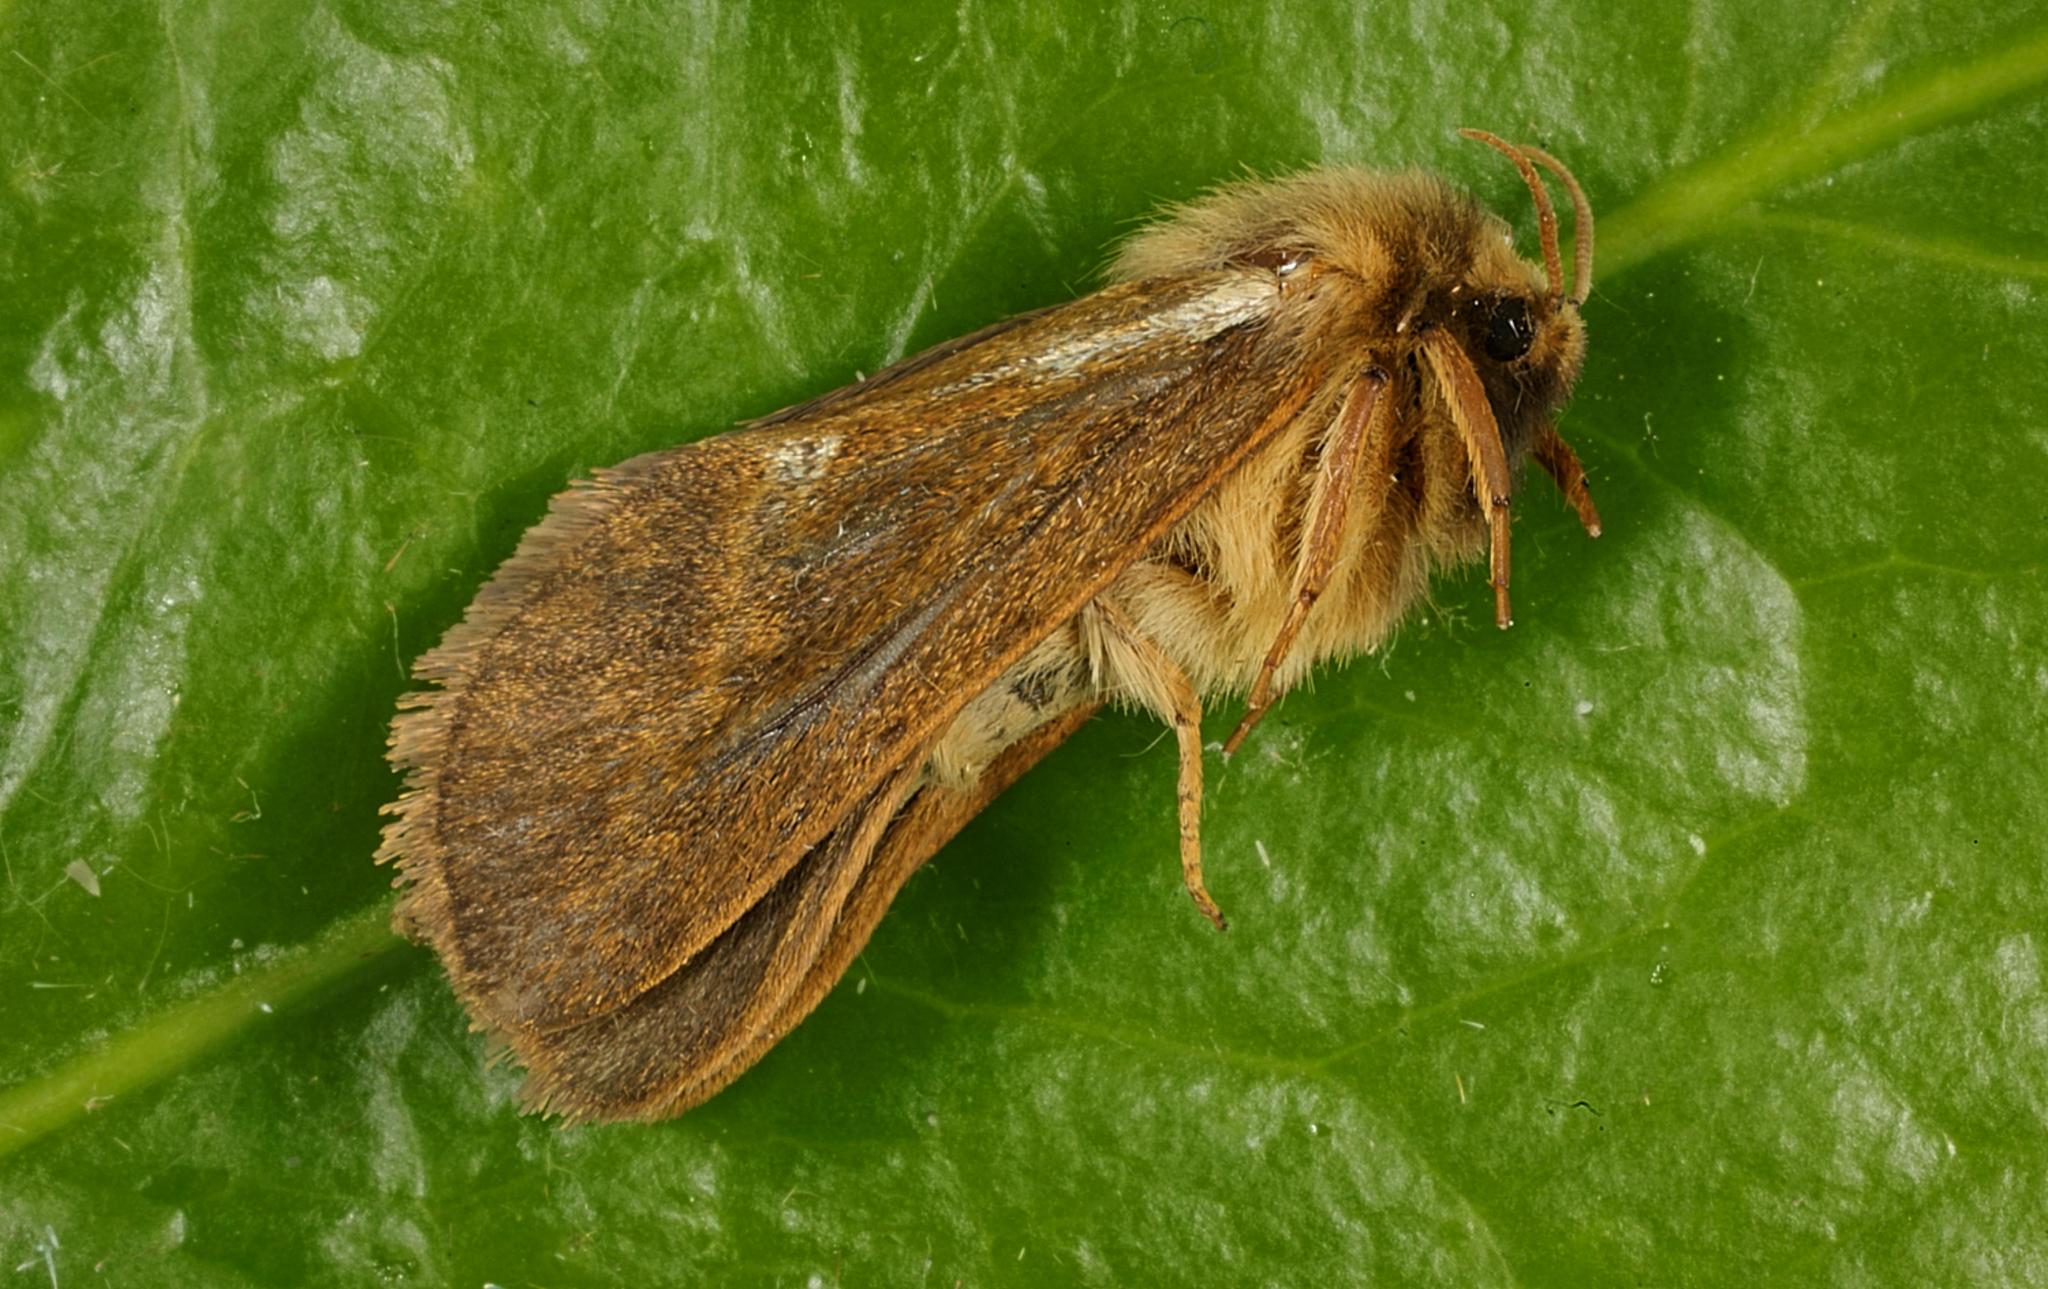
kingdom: Animalia
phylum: Arthropoda
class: Insecta
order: Lepidoptera
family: Hepialidae
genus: Korscheltellus
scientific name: Korscheltellus lupulina
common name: Common swift
